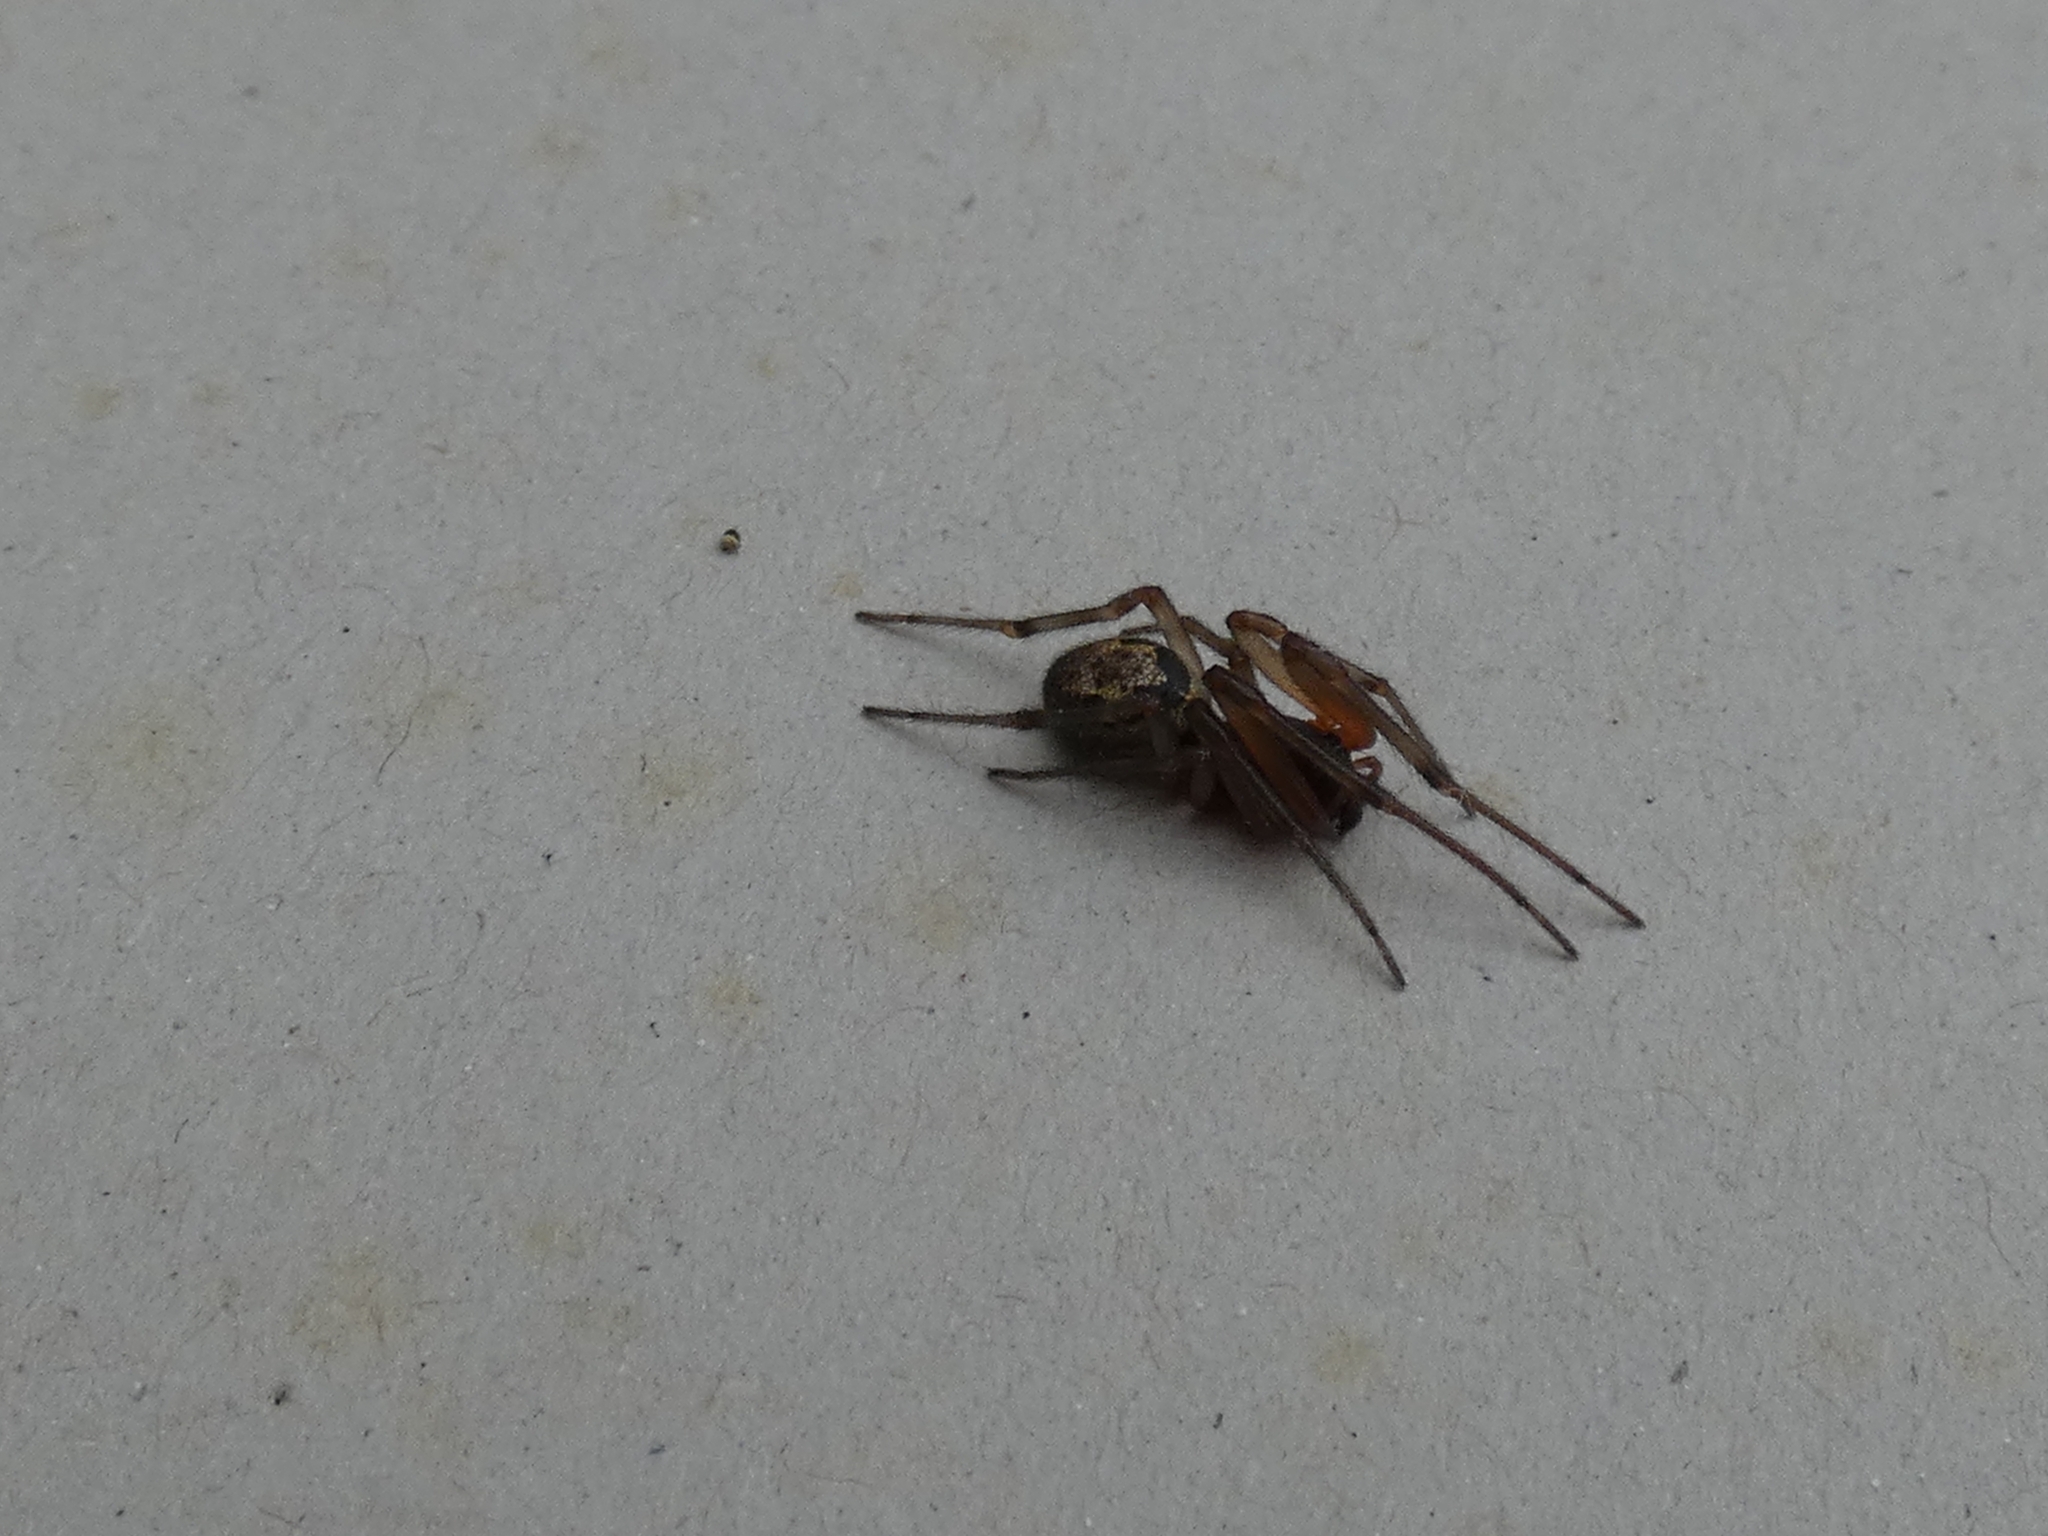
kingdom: Animalia
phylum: Arthropoda
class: Arachnida
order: Araneae
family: Theridiidae
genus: Steatoda
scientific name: Steatoda nobilis
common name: Cobweb weaver
